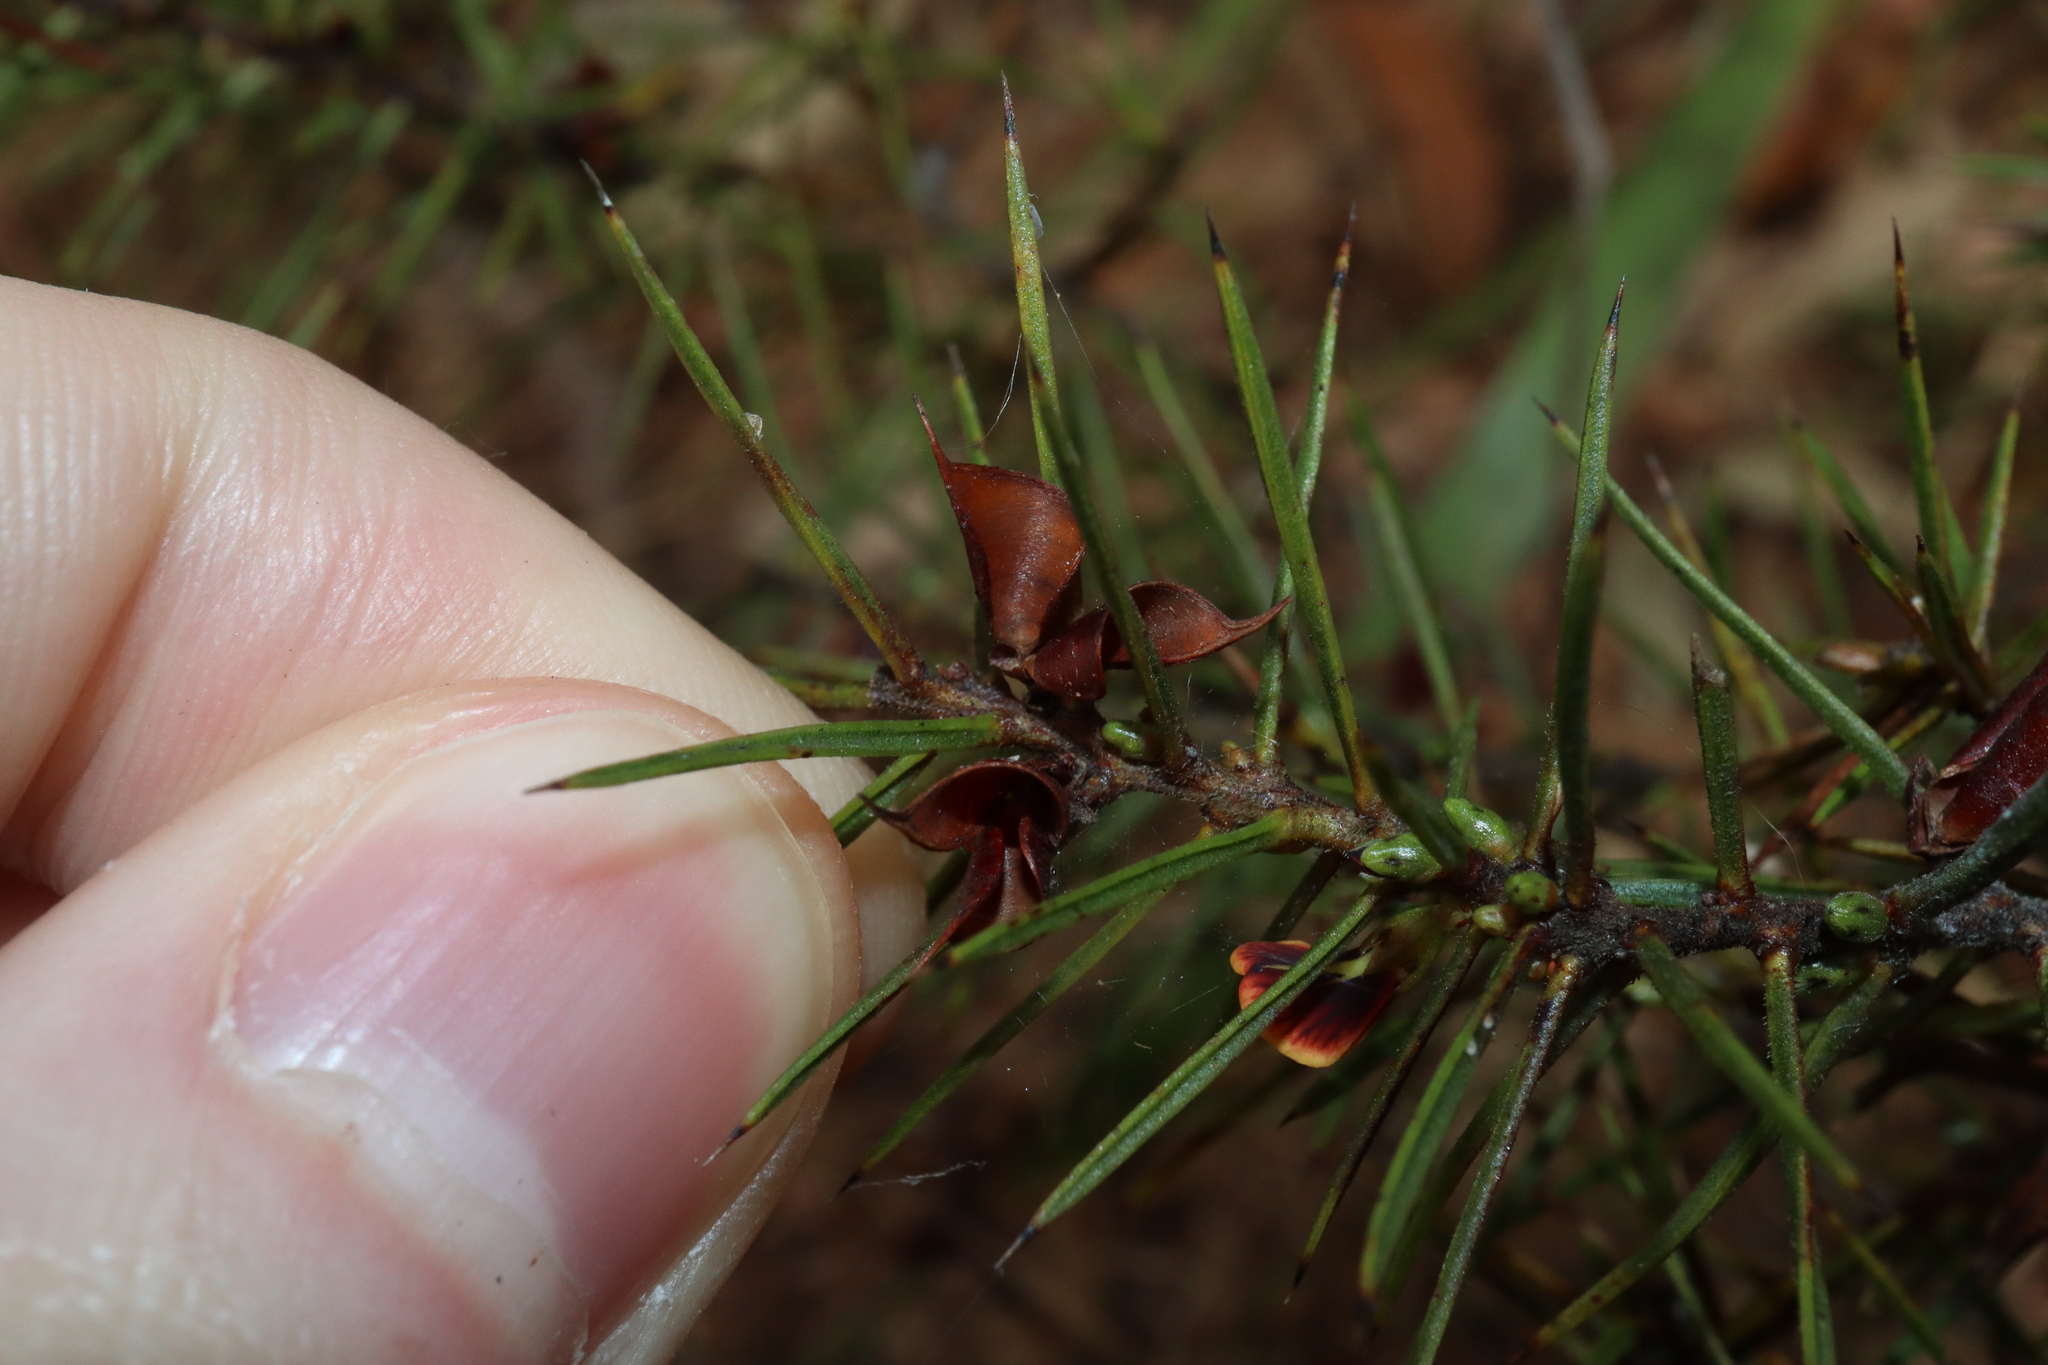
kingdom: Plantae
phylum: Tracheophyta
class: Magnoliopsida
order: Fabales
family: Fabaceae
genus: Daviesia
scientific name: Daviesia acicularis
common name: Sandplain bitter-pea
